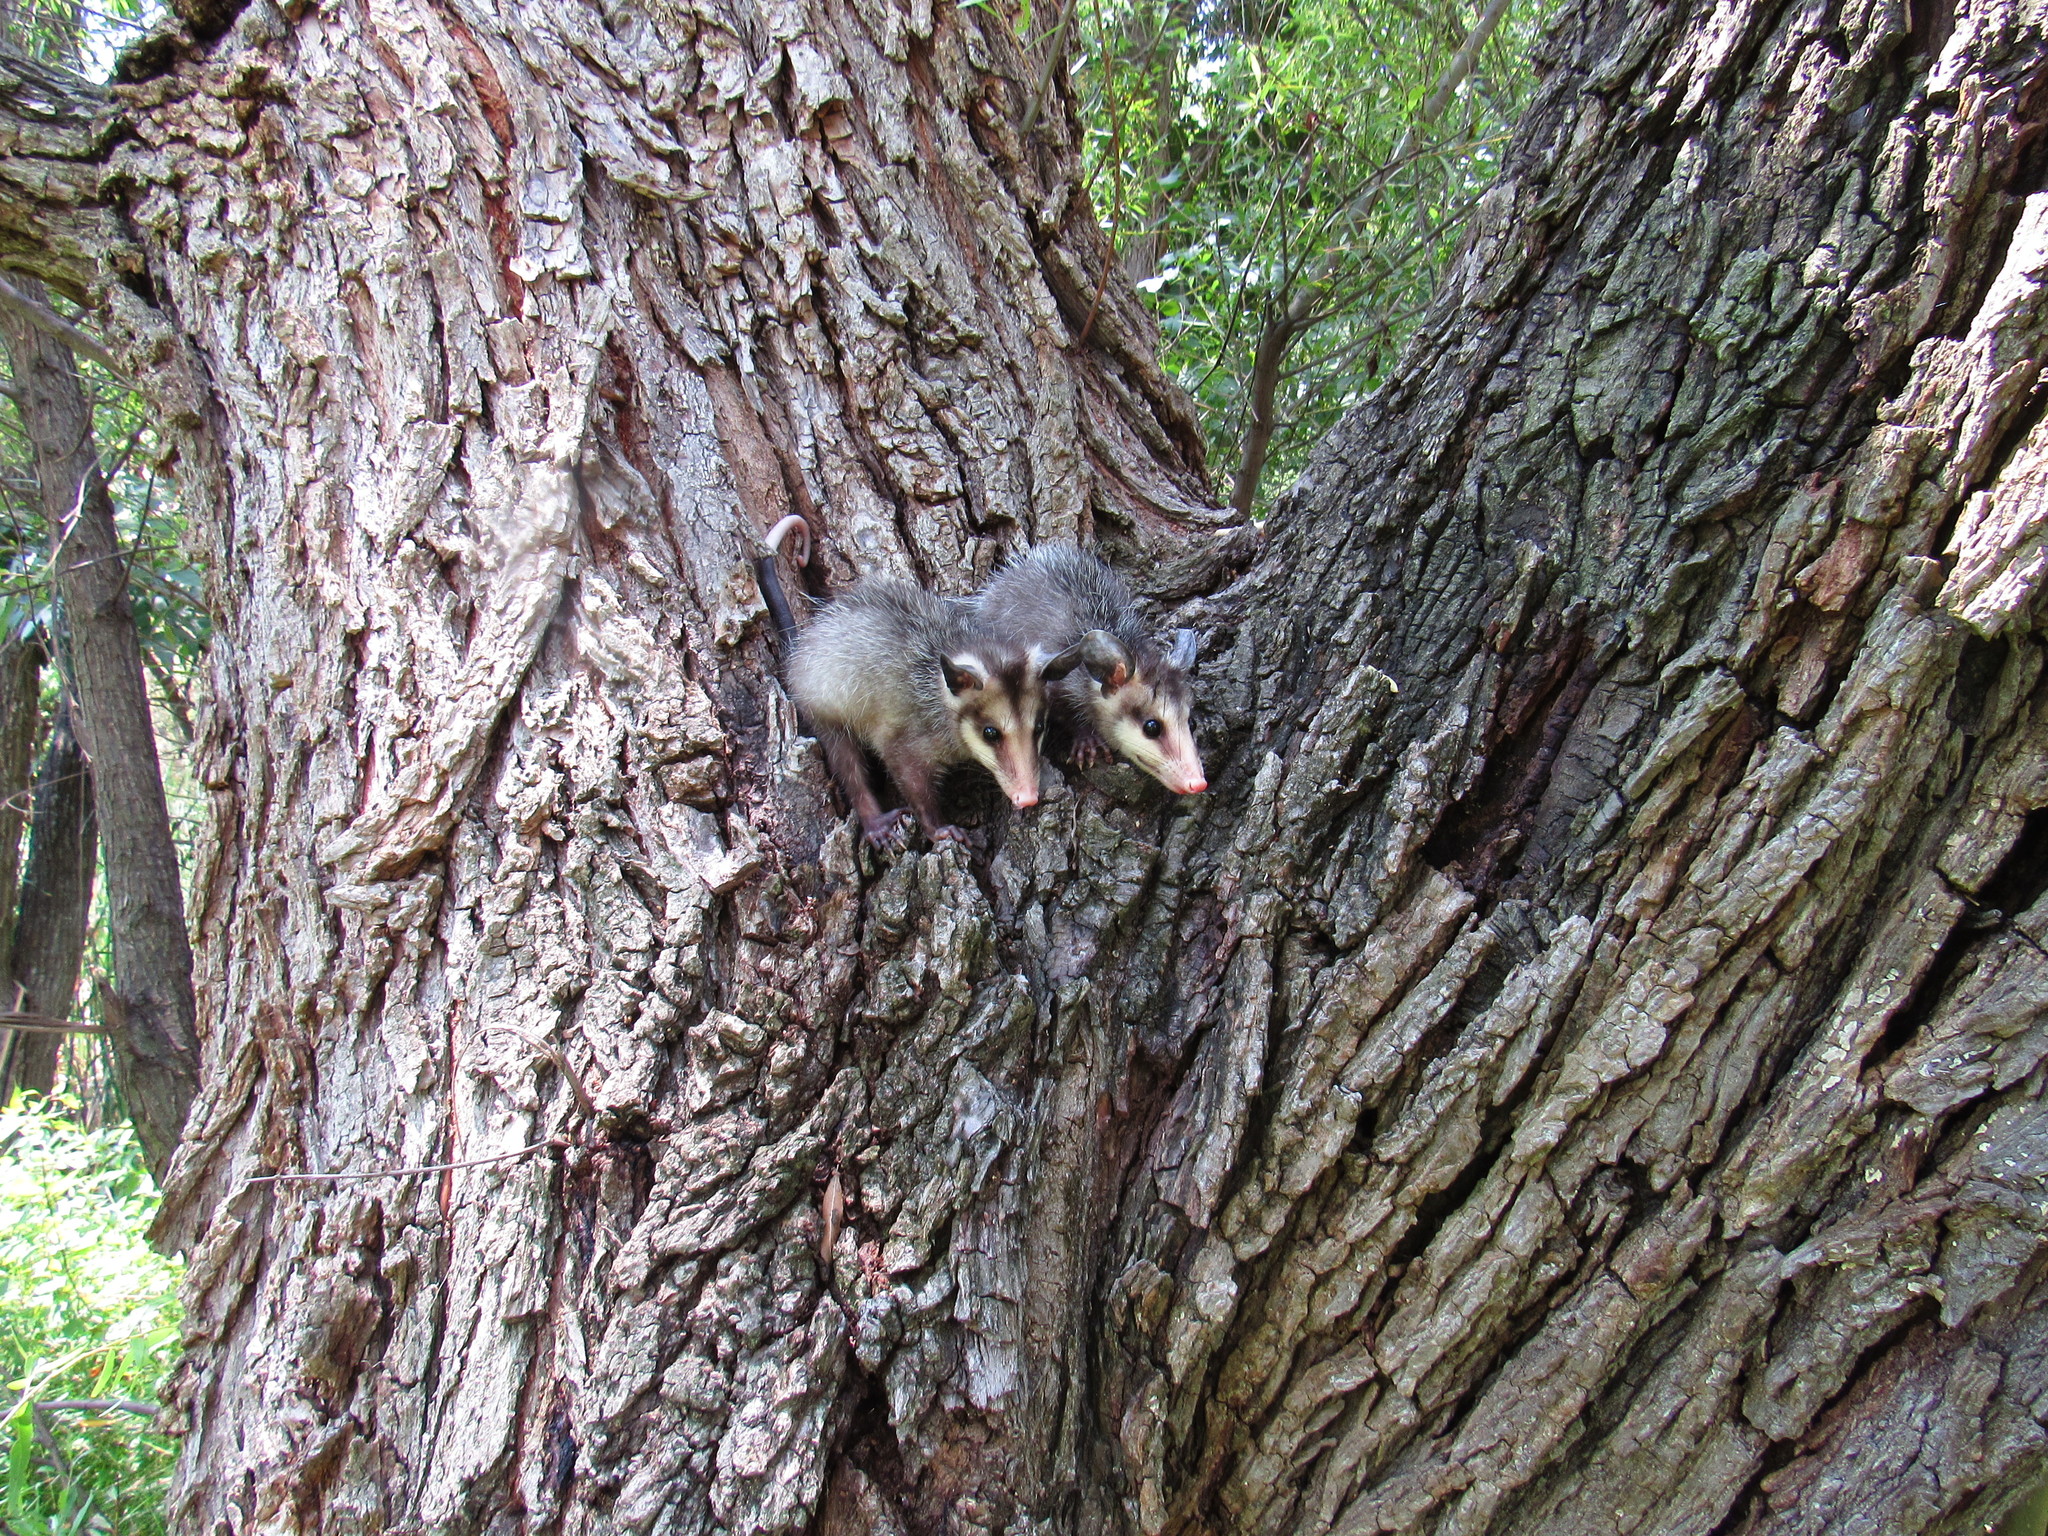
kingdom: Animalia
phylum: Chordata
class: Mammalia
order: Didelphimorphia
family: Didelphidae
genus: Didelphis
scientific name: Didelphis virginiana
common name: Virginia opossum
